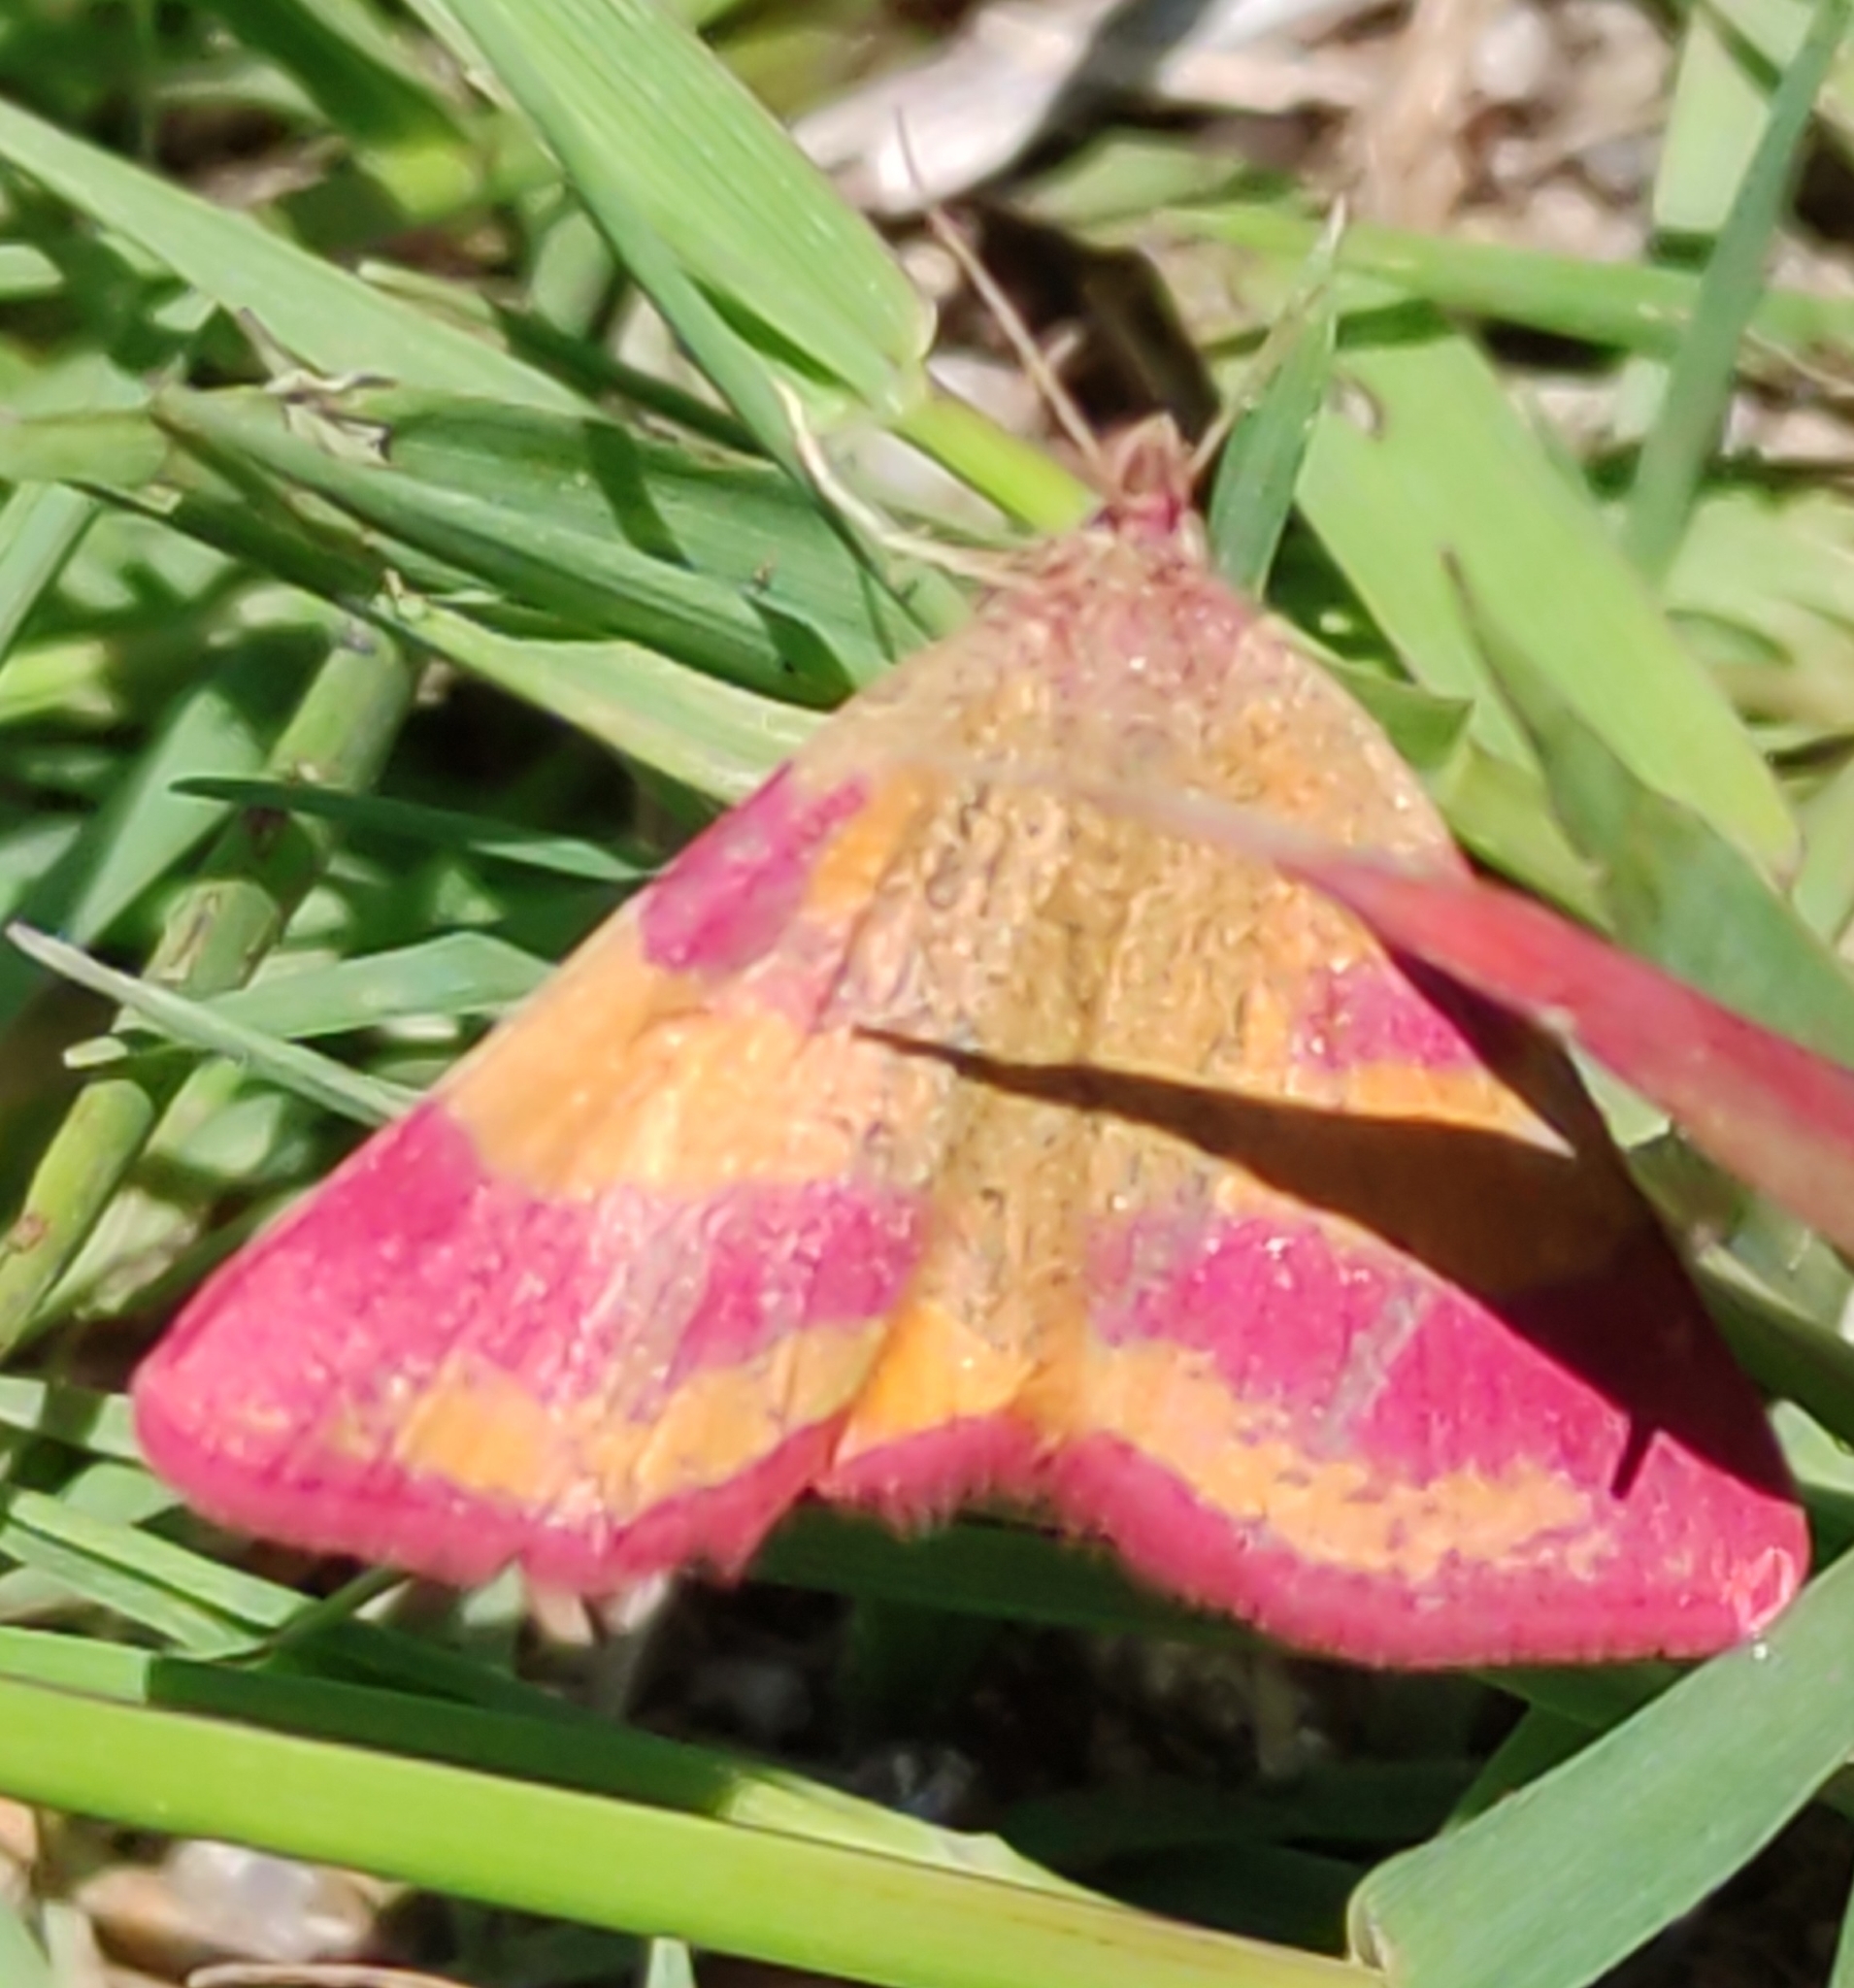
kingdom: Animalia
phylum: Arthropoda
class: Insecta
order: Lepidoptera
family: Geometridae
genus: Lythria
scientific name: Lythria cruentaria
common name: Purple-barred yellow
